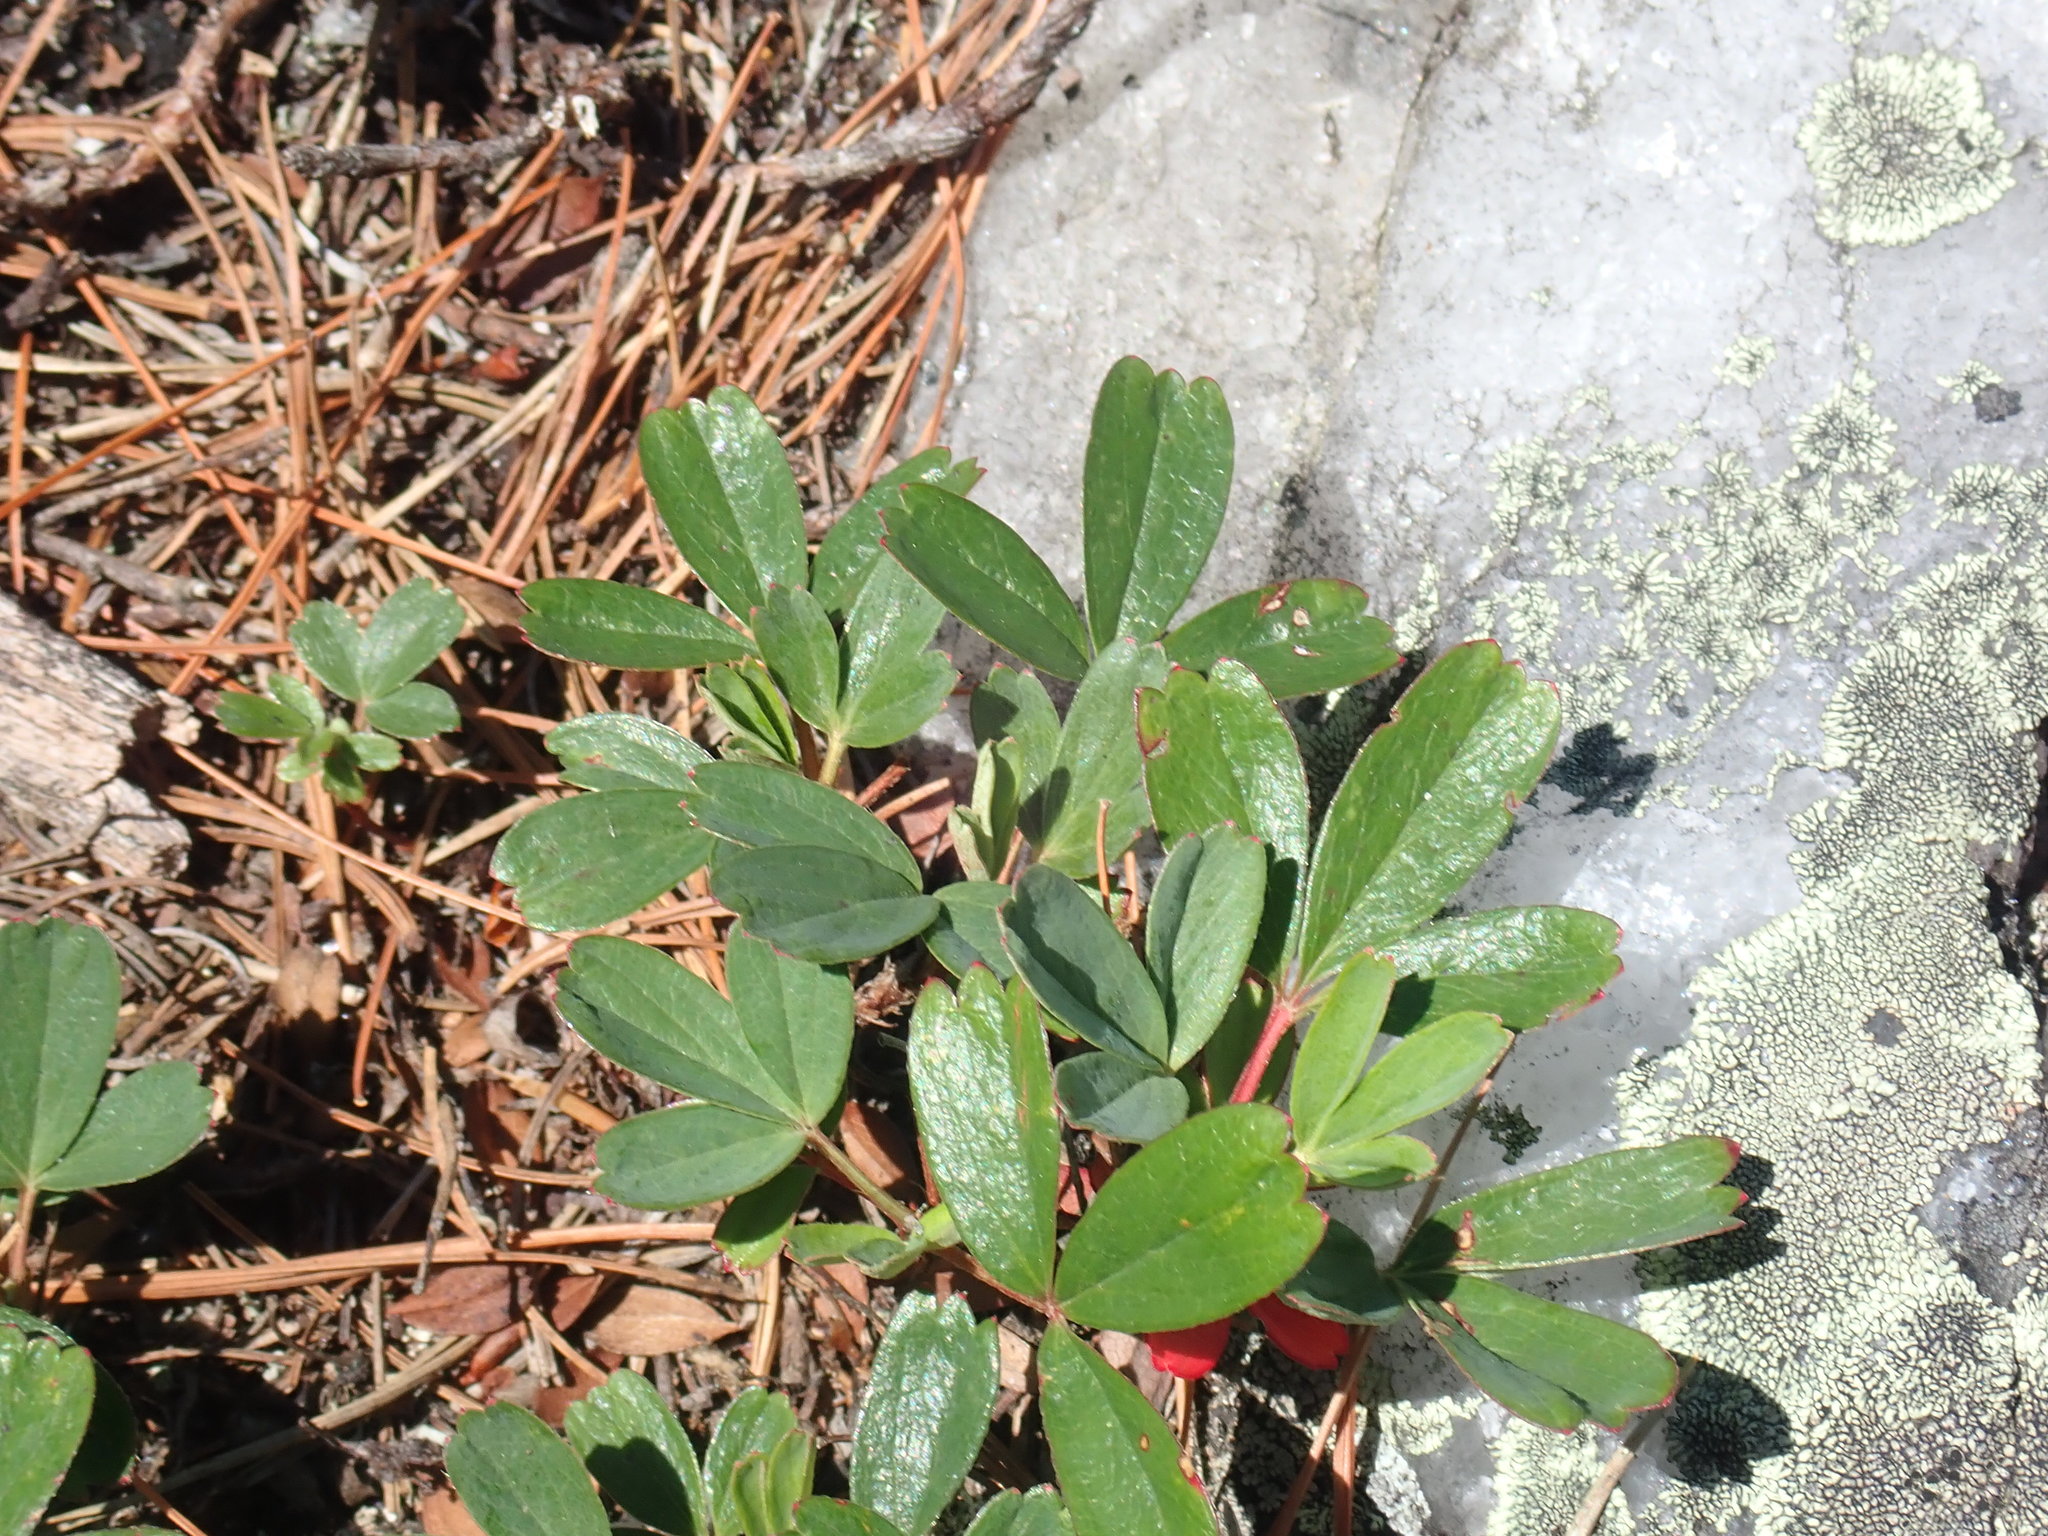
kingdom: Plantae
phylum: Tracheophyta
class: Magnoliopsida
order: Rosales
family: Rosaceae
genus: Sibbaldia
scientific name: Sibbaldia tridentata
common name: Three-toothed cinquefoil
